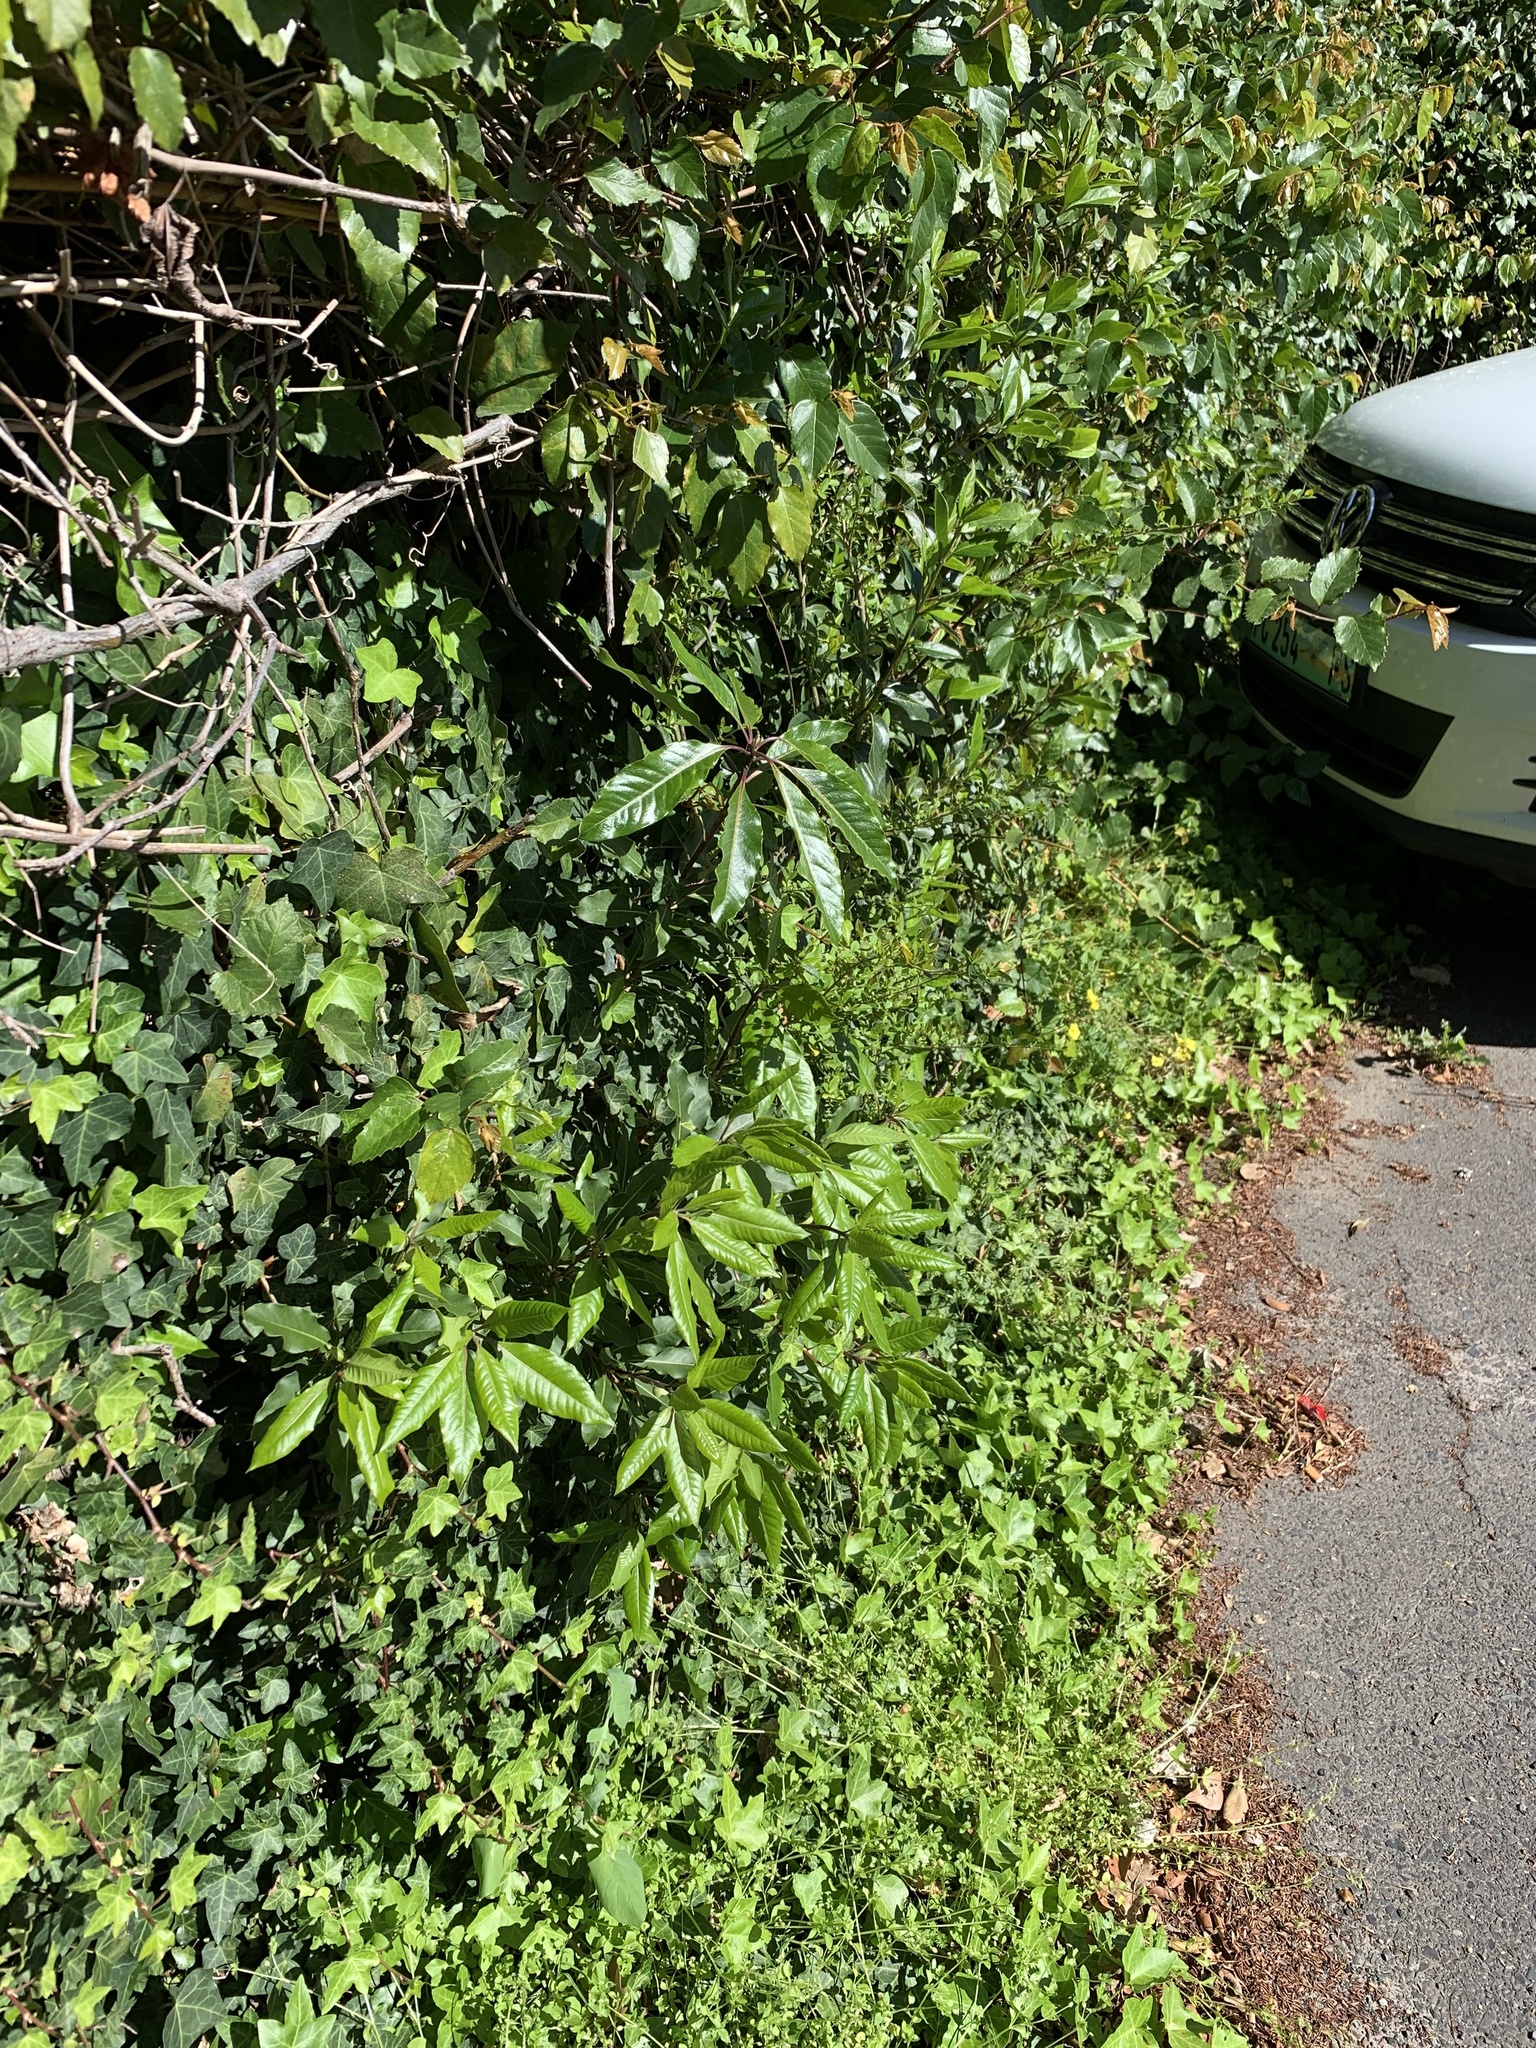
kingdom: Plantae
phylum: Tracheophyta
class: Magnoliopsida
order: Apiales
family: Pittosporaceae
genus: Pittosporum
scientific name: Pittosporum undulatum
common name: Australian cheesewood
